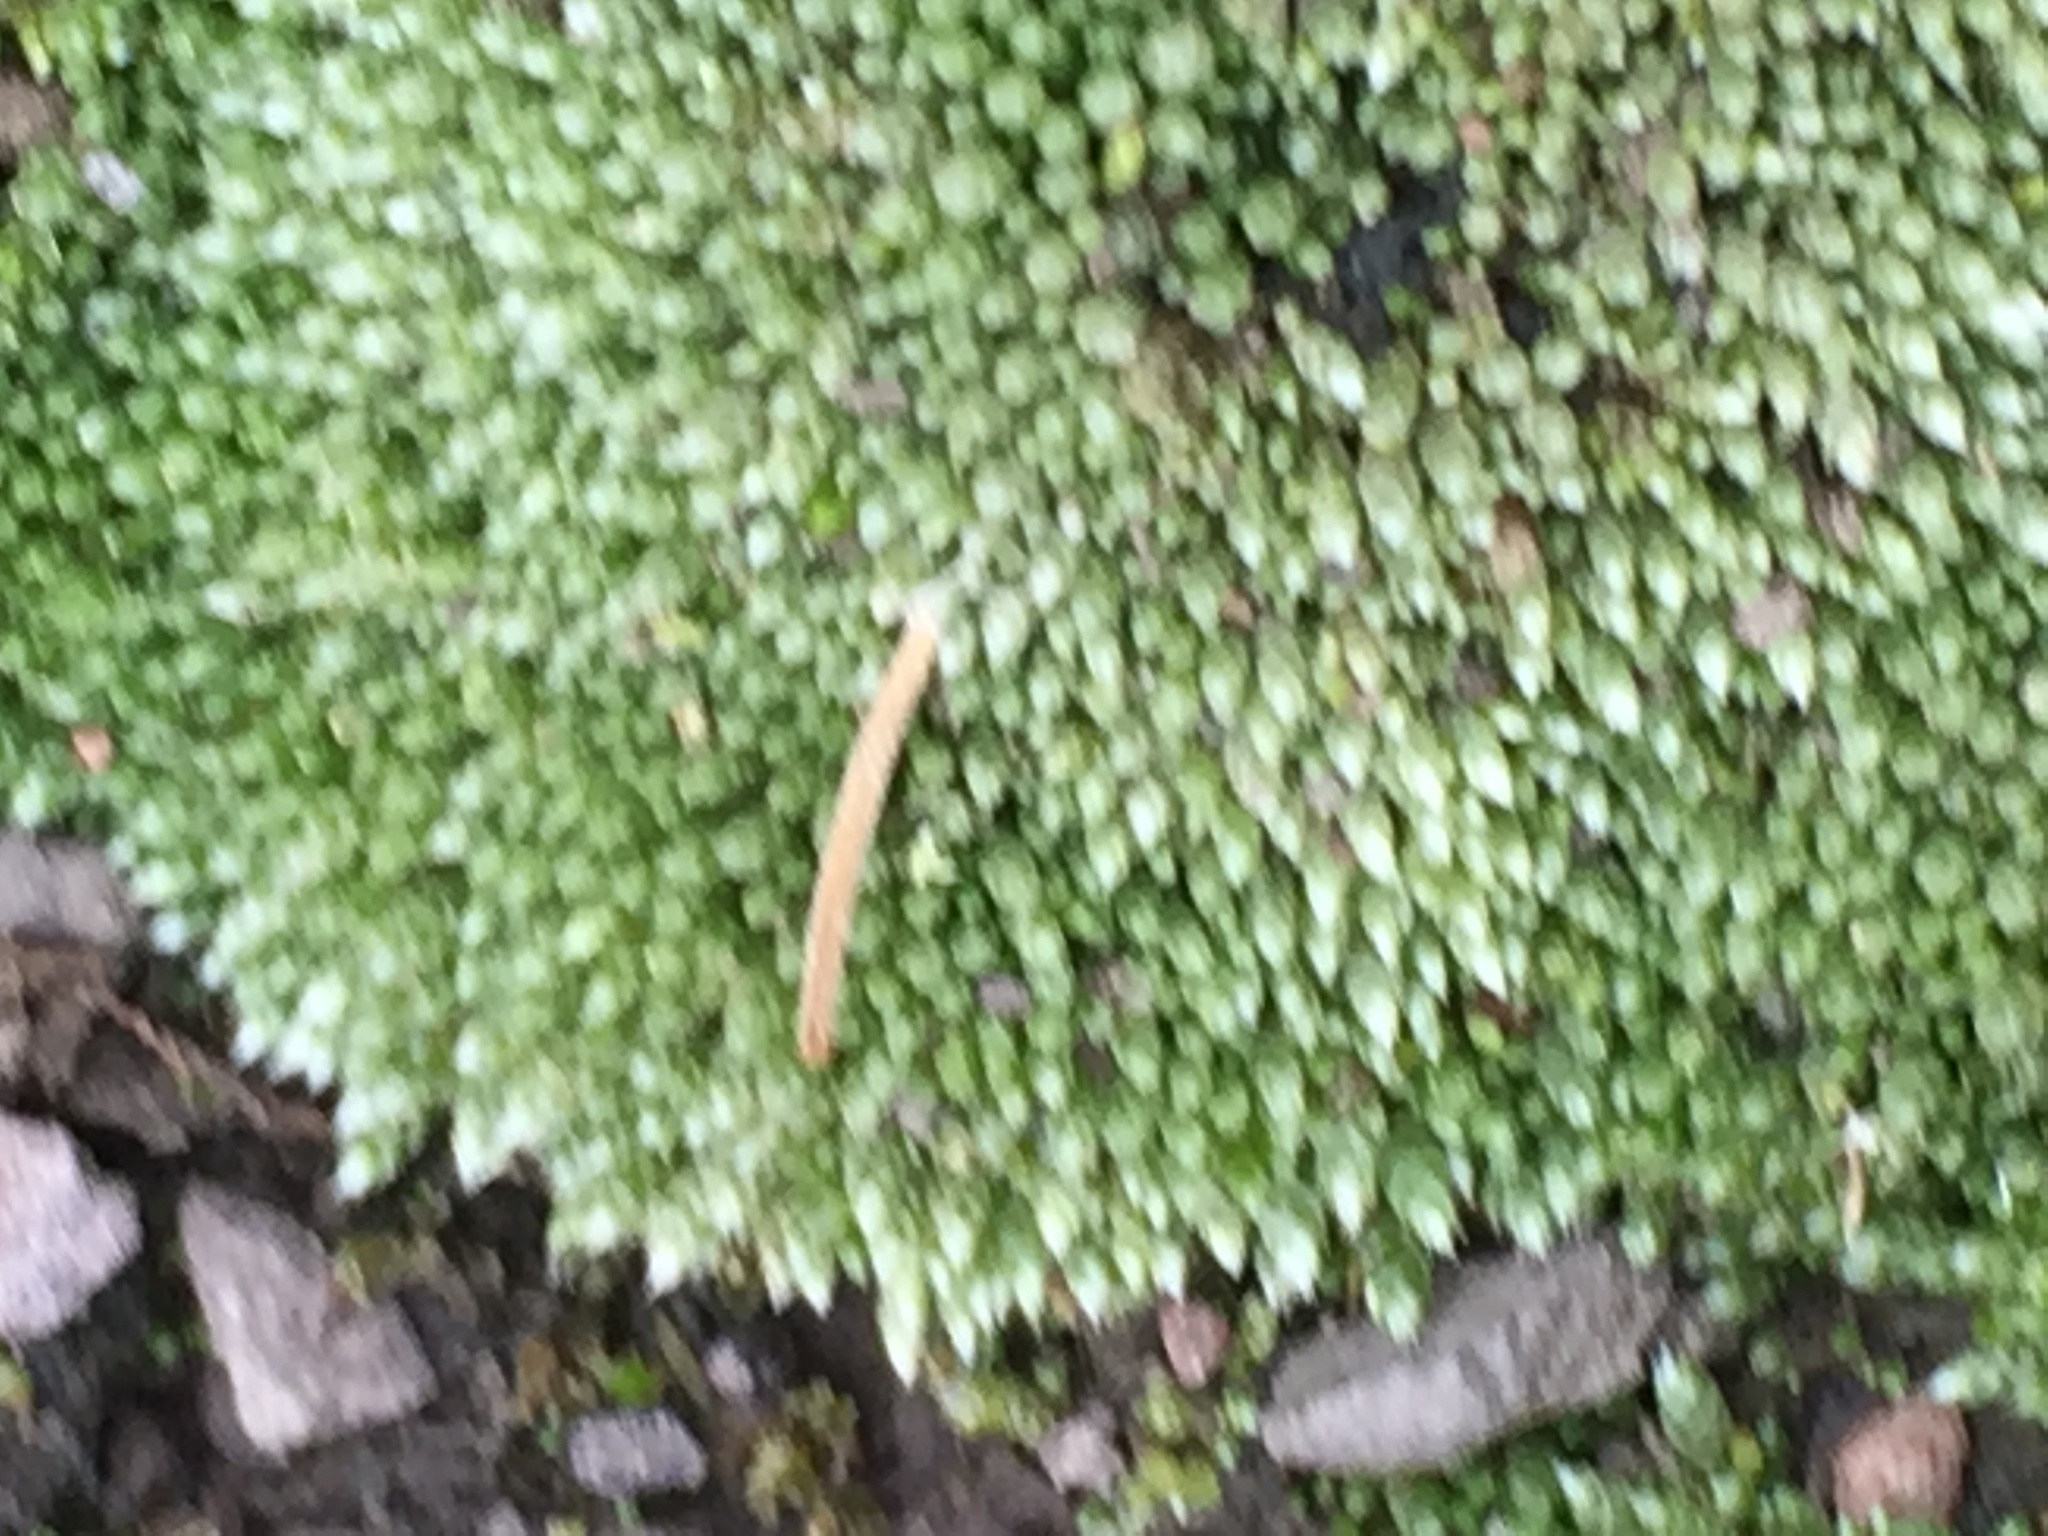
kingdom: Plantae
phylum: Bryophyta
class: Bryopsida
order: Bryales
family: Bryaceae
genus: Bryum
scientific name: Bryum argenteum
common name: Silver-moss
